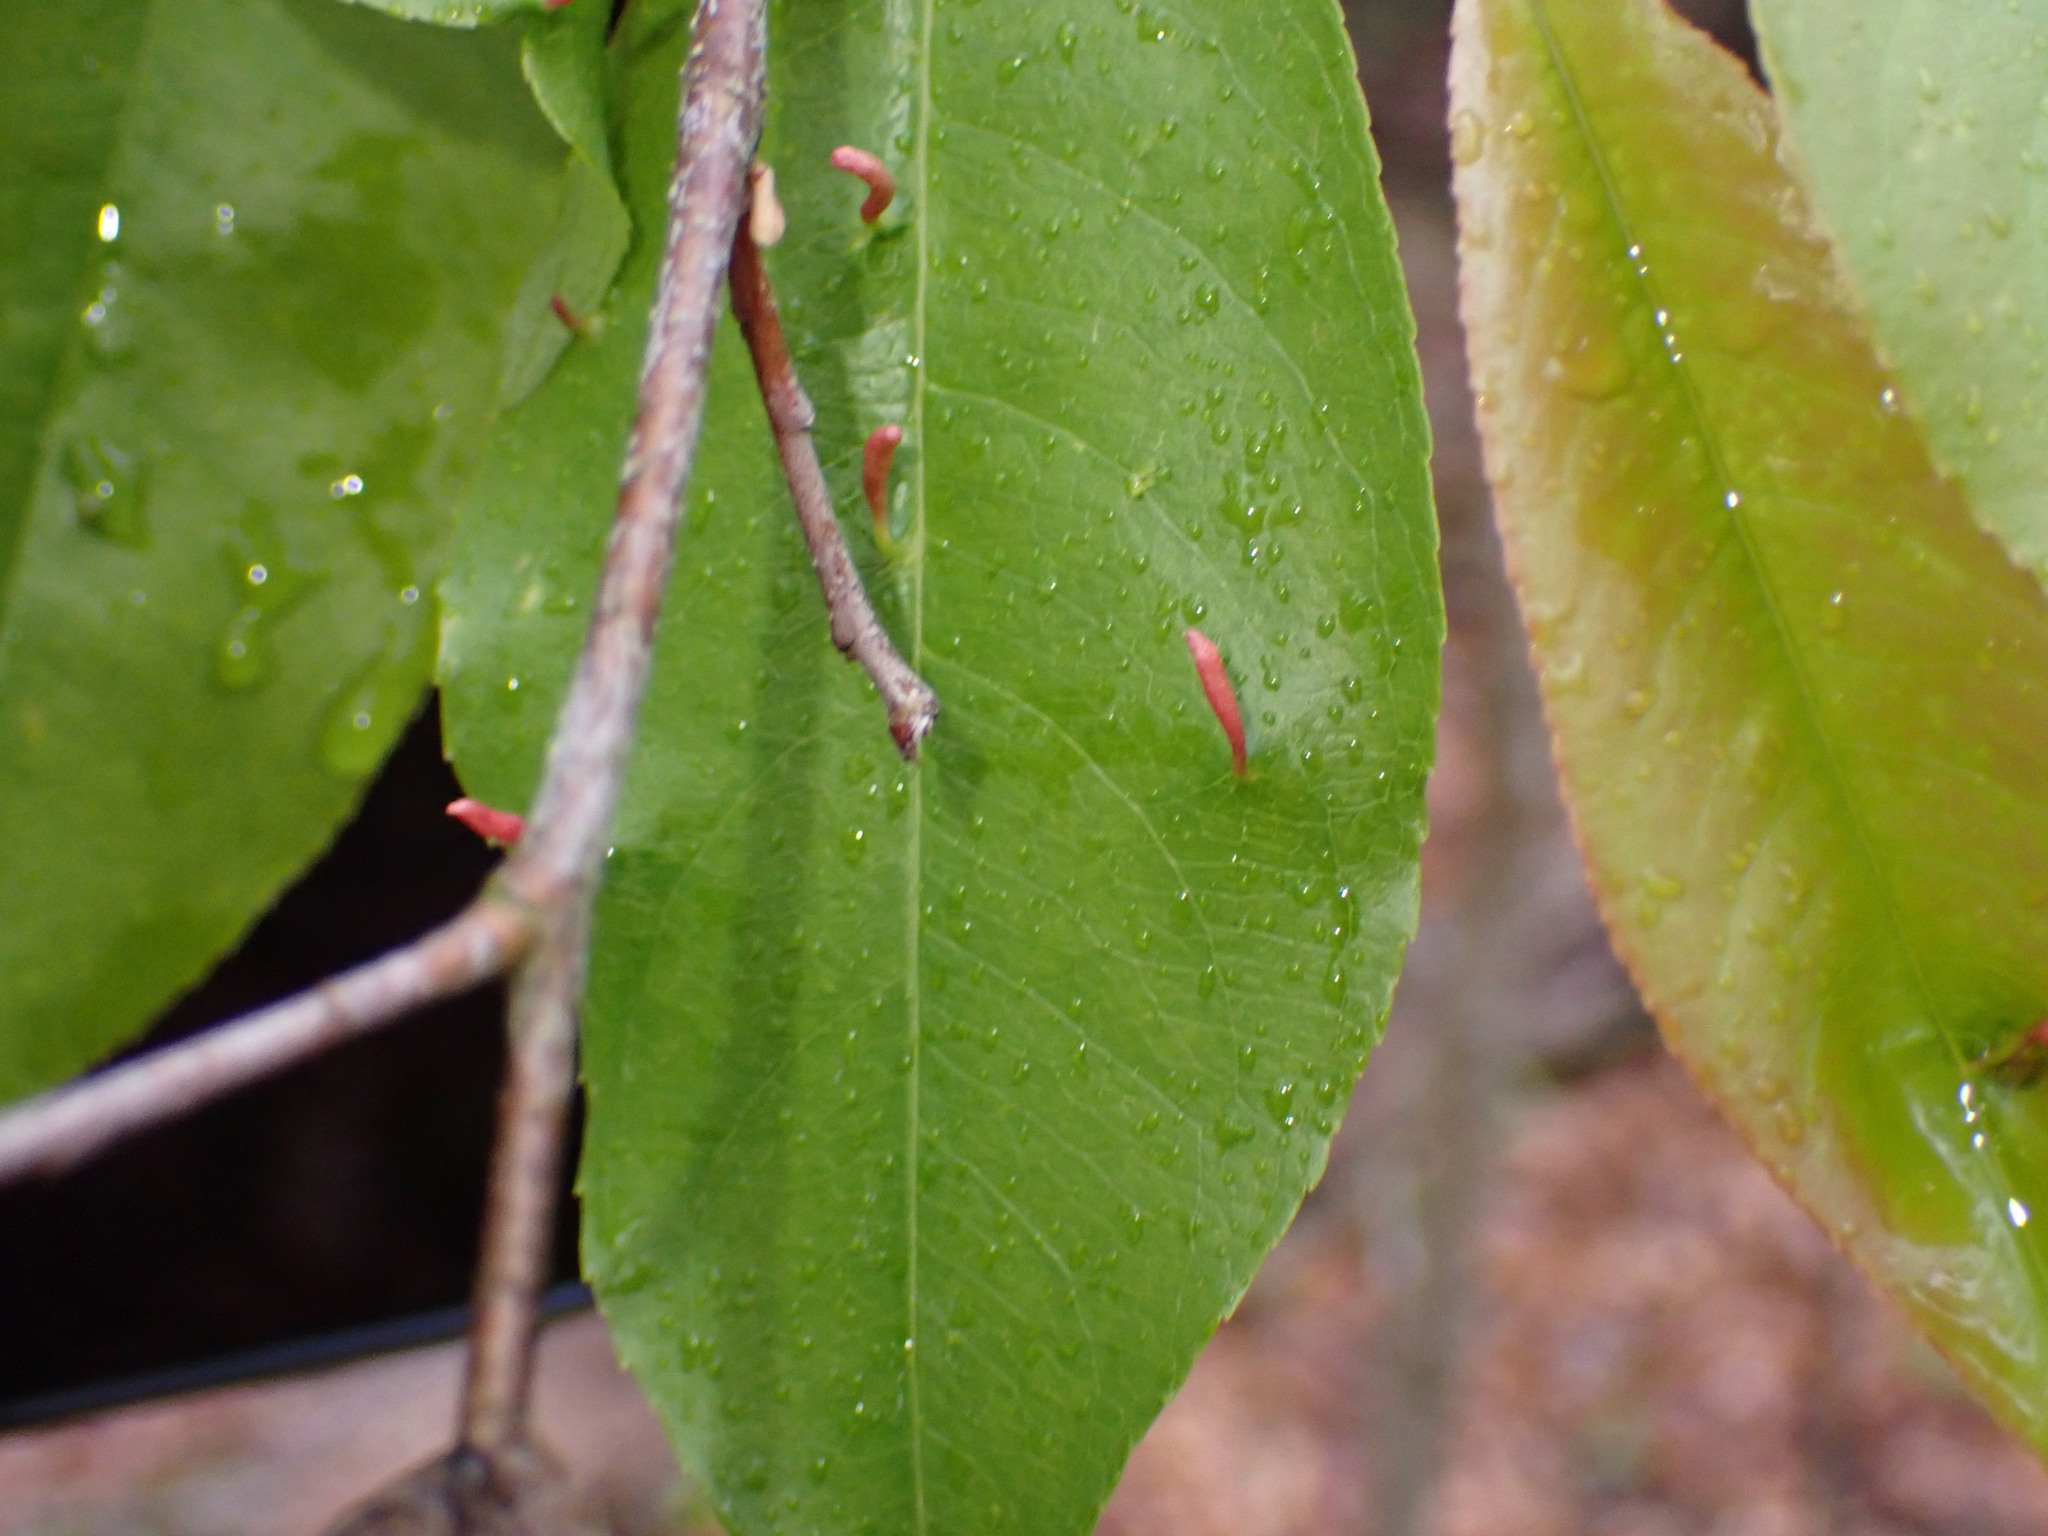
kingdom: Animalia
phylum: Arthropoda
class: Arachnida
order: Trombidiformes
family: Eriophyidae
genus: Eriophyes
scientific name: Eriophyes
